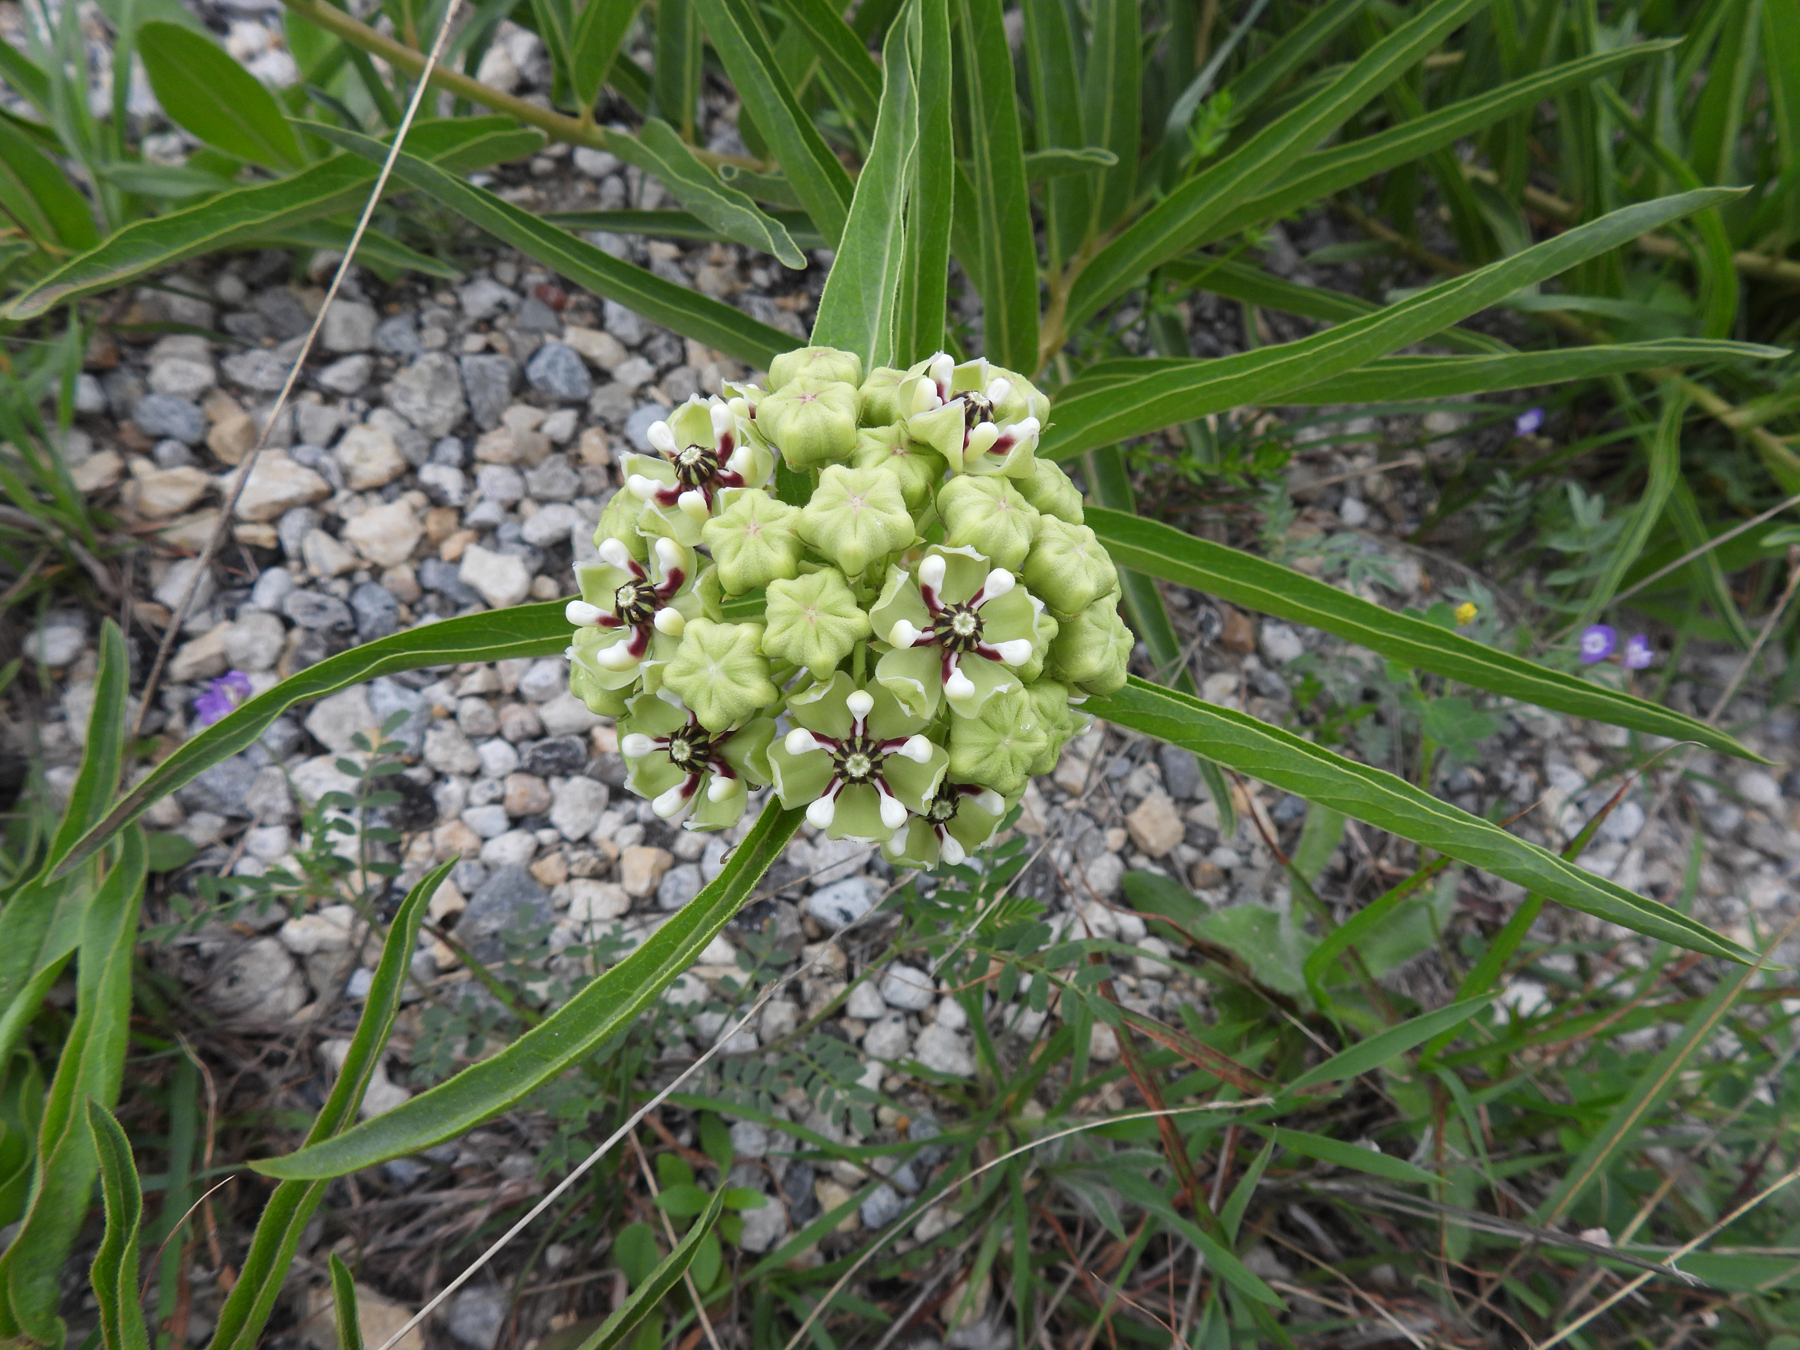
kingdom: Plantae
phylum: Tracheophyta
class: Magnoliopsida
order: Gentianales
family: Apocynaceae
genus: Asclepias
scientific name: Asclepias asperula
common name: Antelope horns
